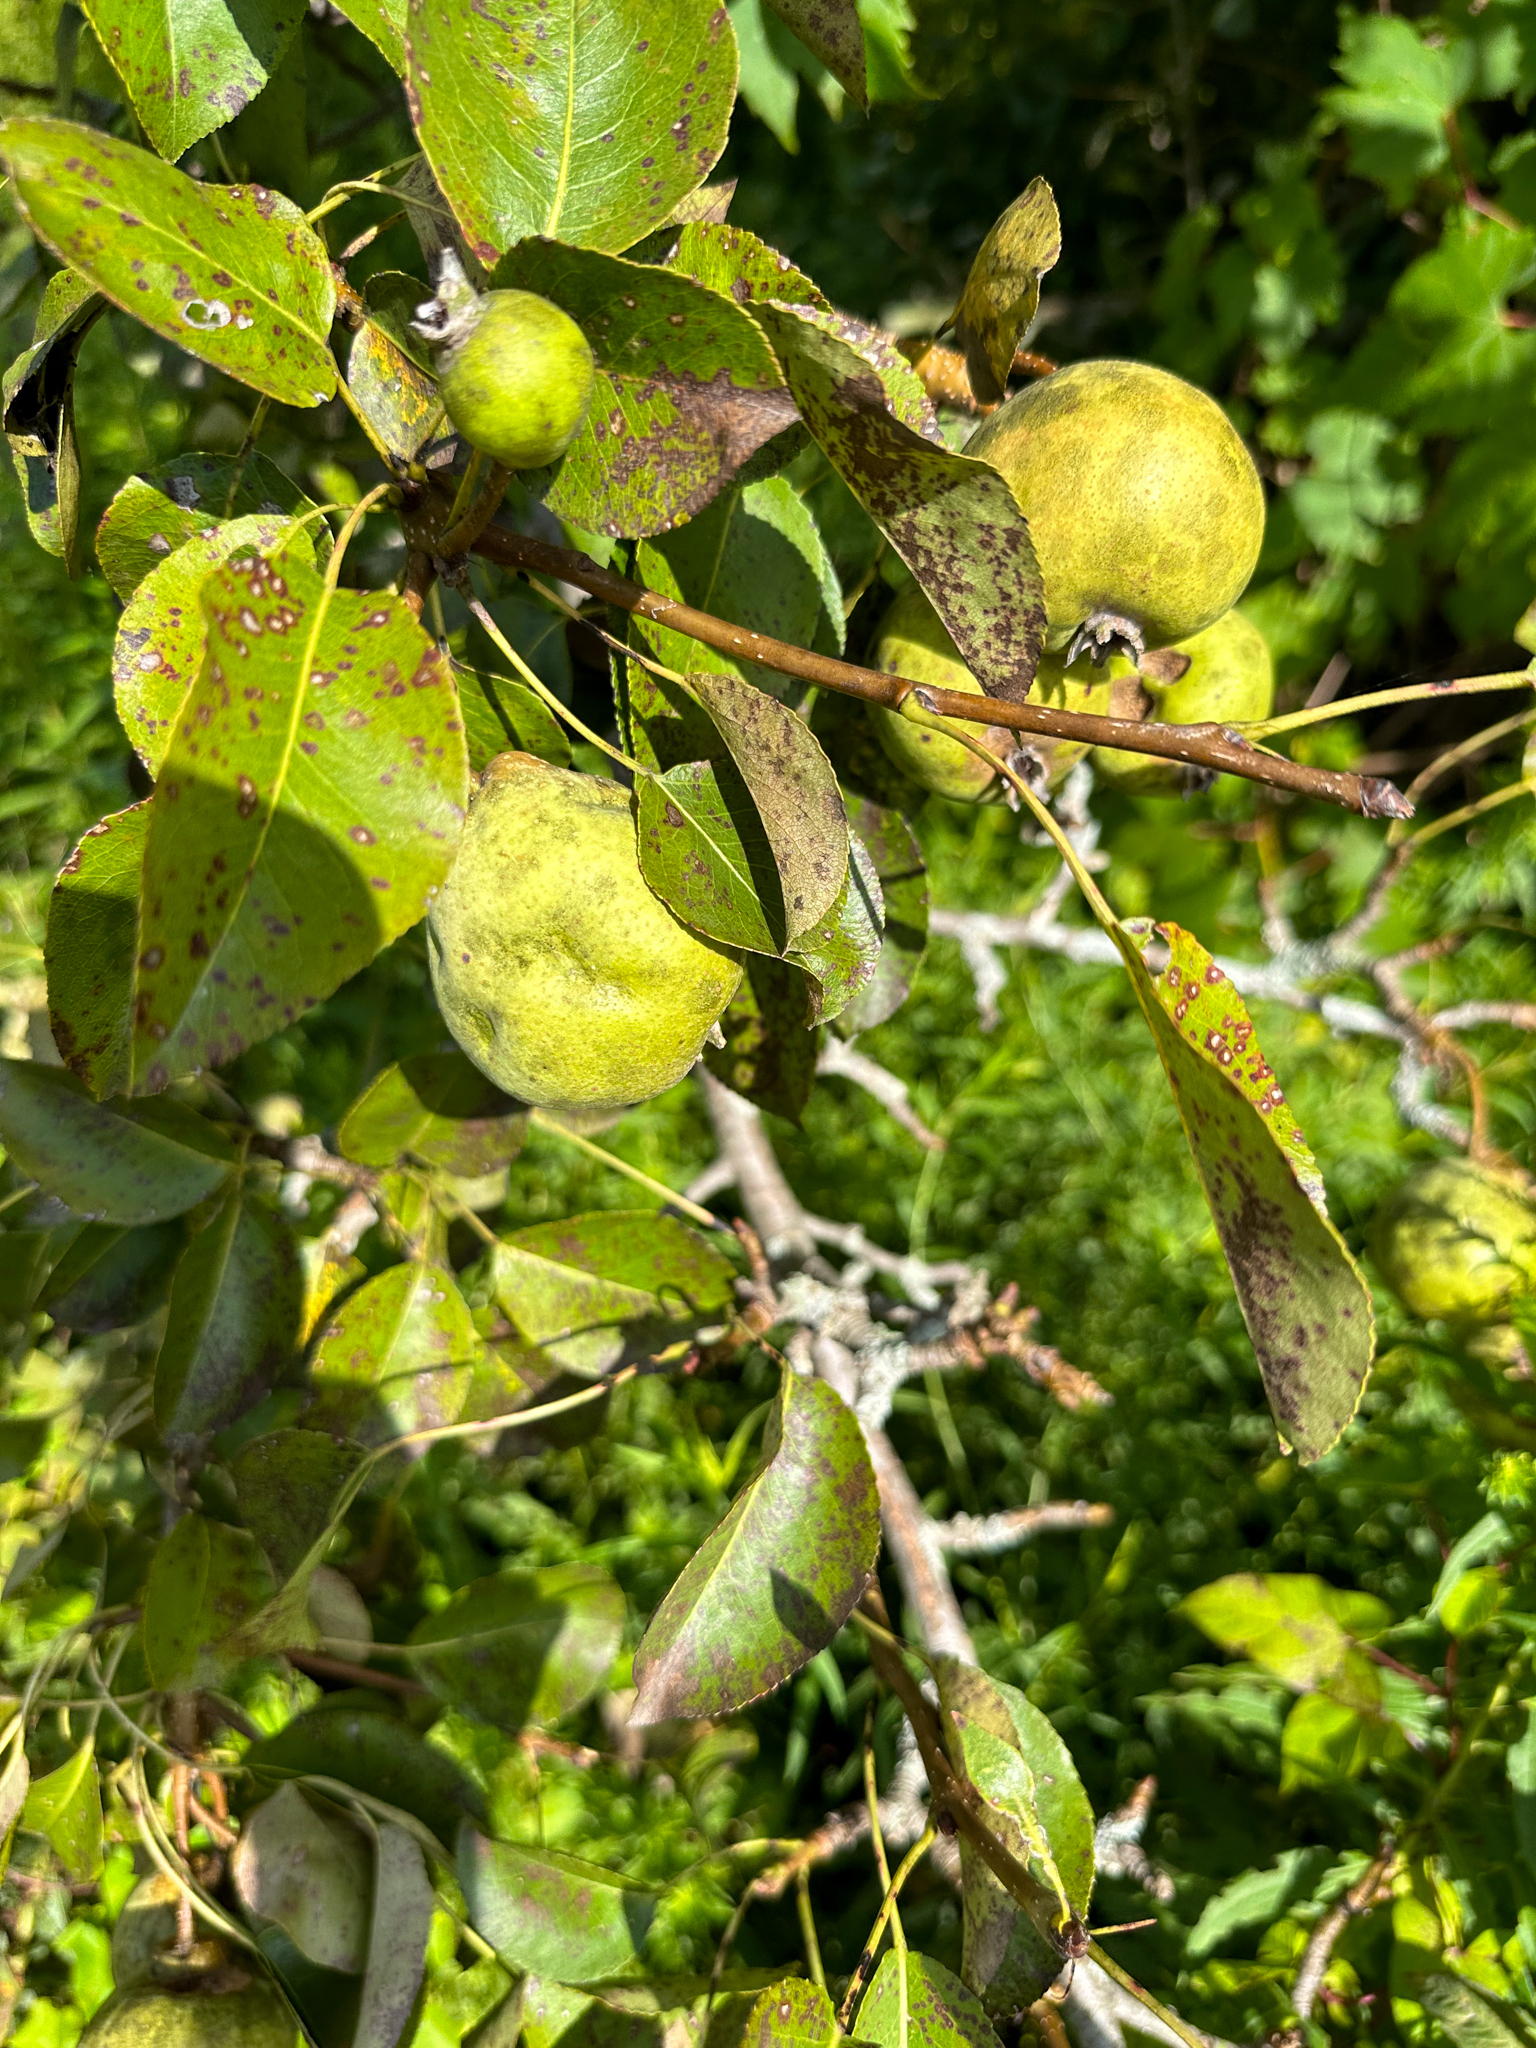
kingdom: Plantae
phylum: Tracheophyta
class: Magnoliopsida
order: Rosales
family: Rosaceae
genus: Pyrus
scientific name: Pyrus communis
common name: Pear
